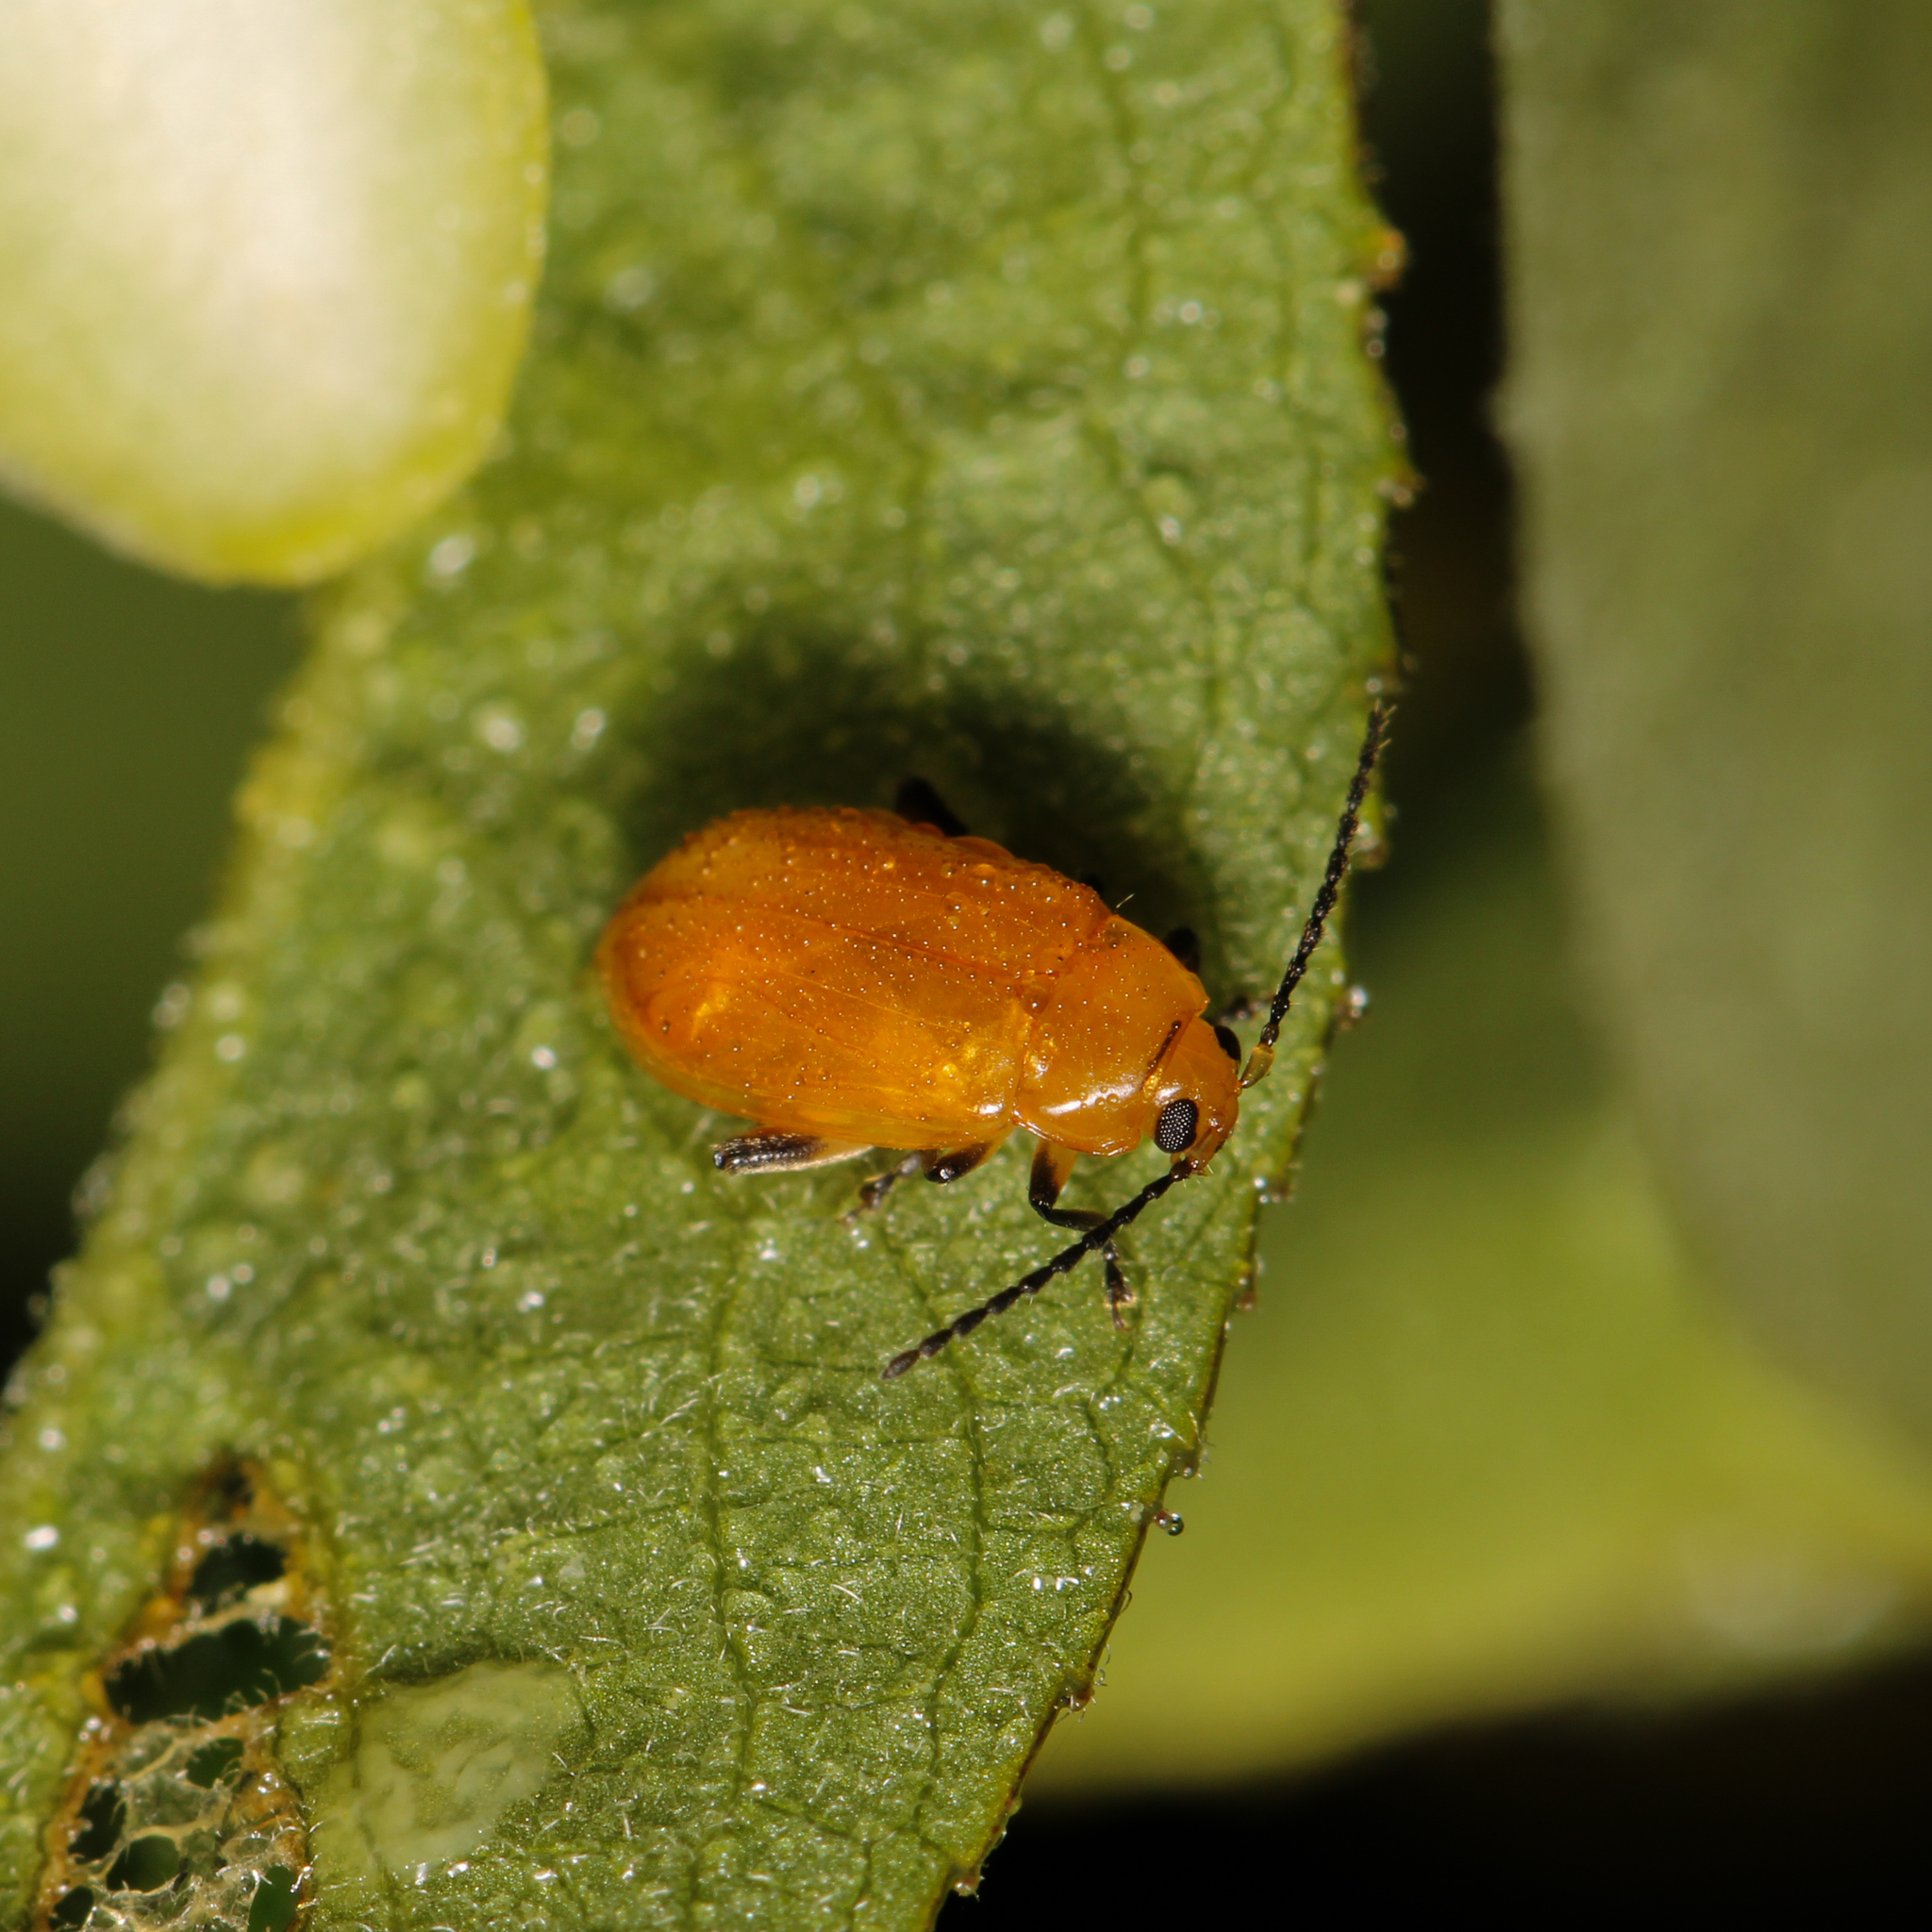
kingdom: Animalia
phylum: Arthropoda
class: Insecta
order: Coleoptera
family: Chrysomelidae
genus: Parchicola
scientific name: Parchicola tibialis
